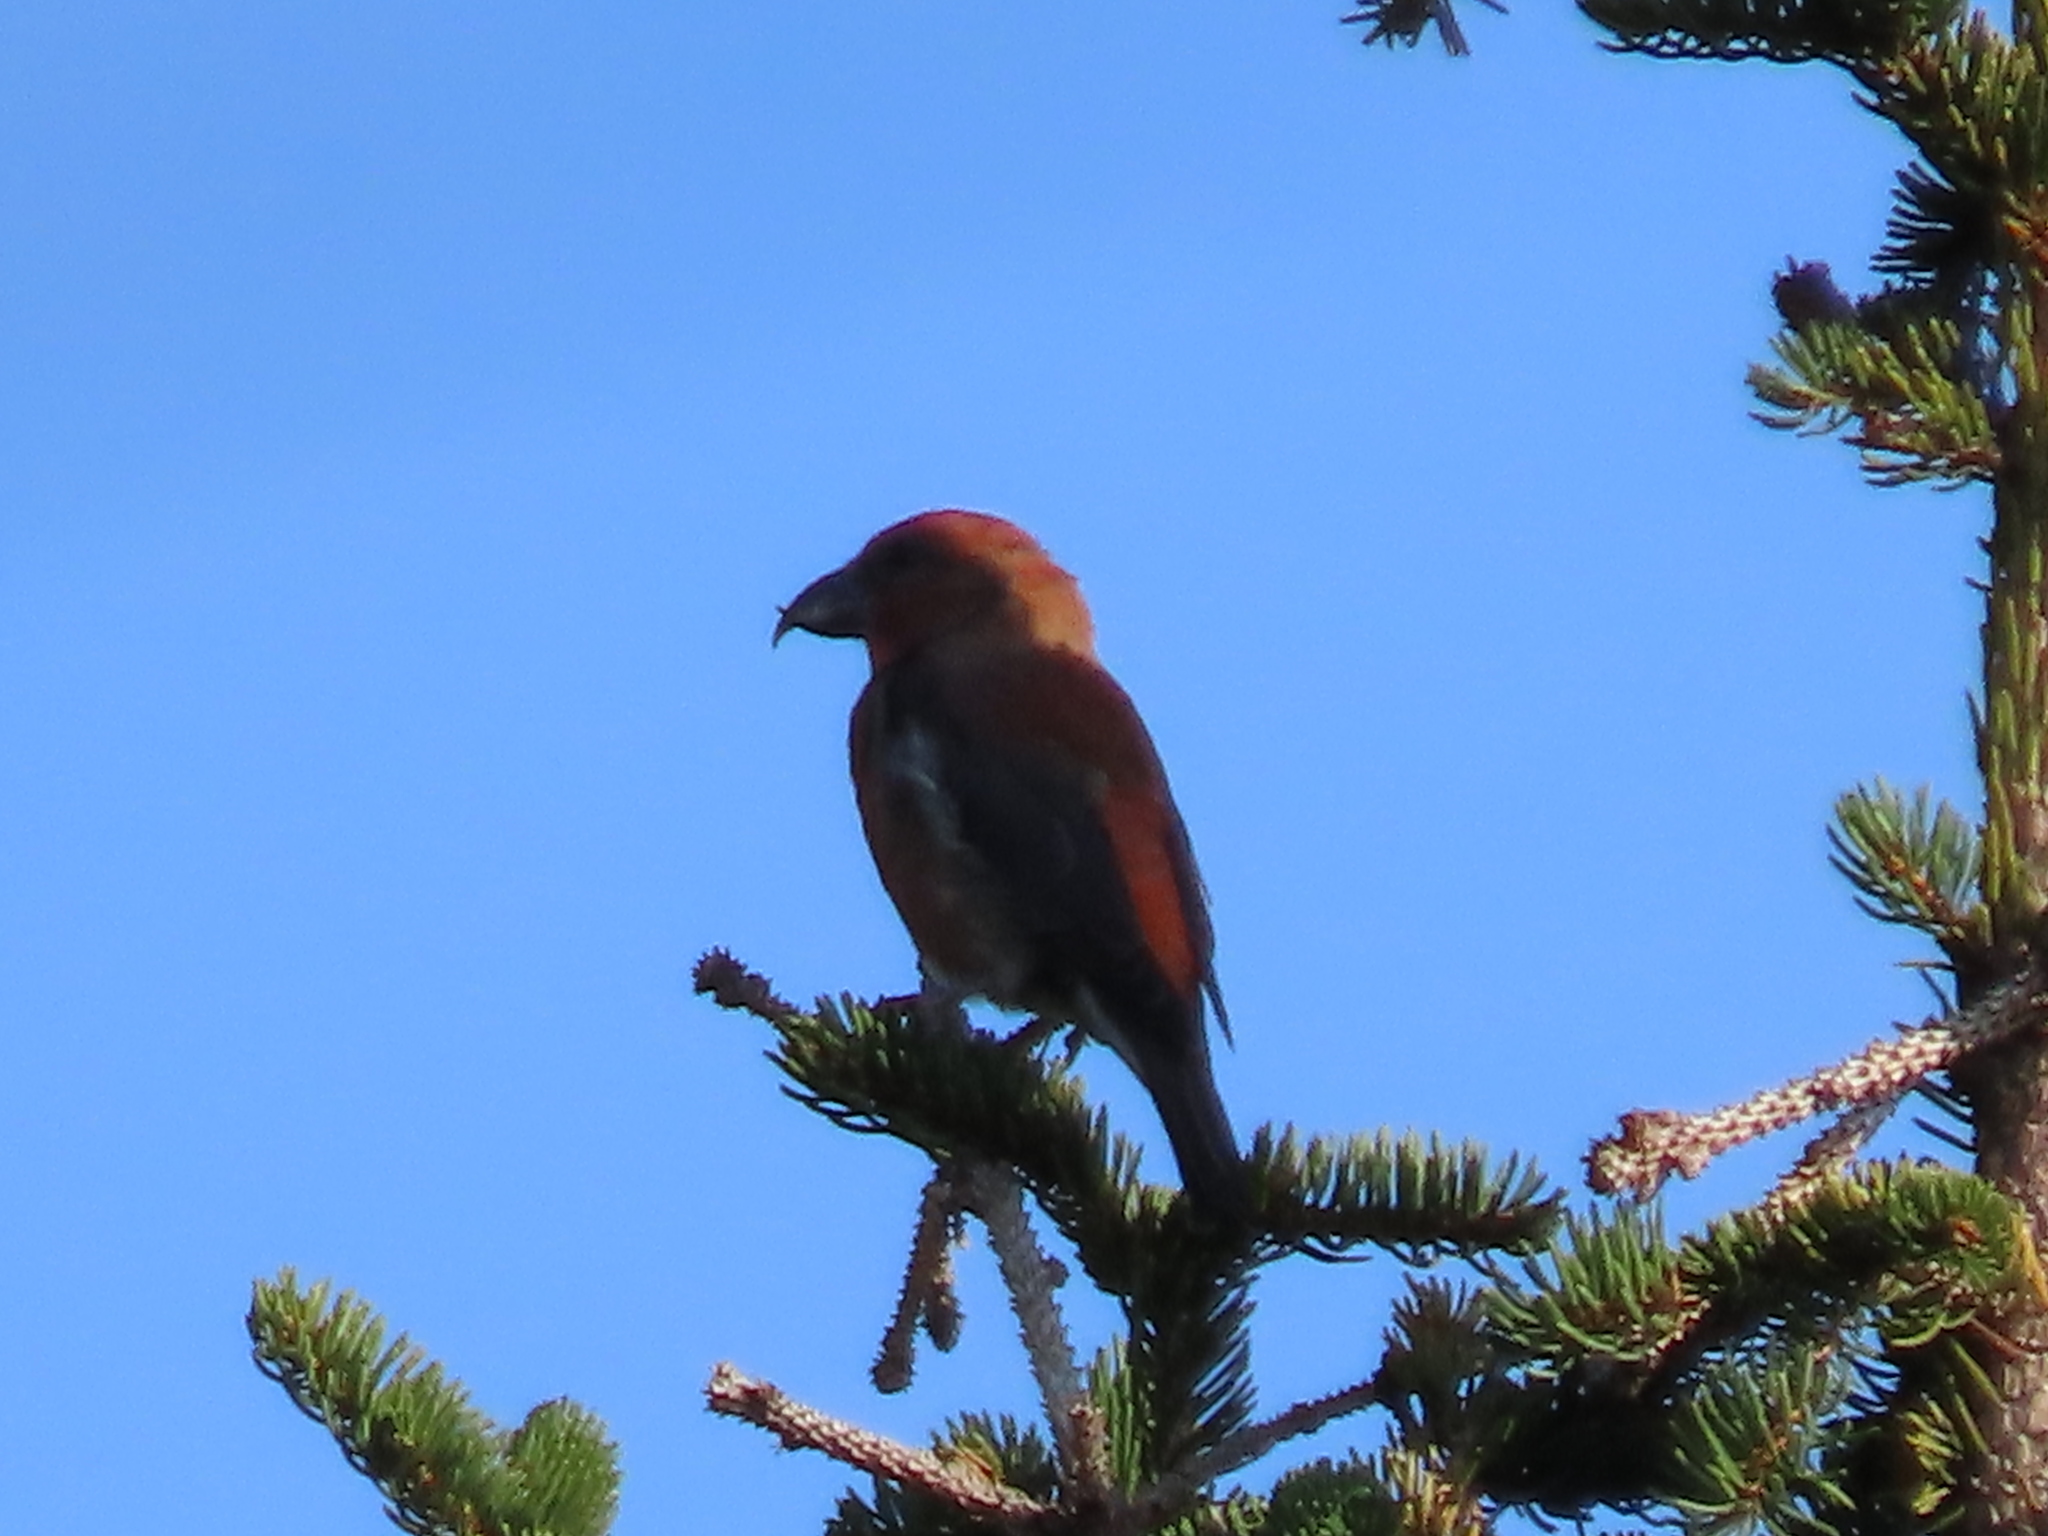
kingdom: Animalia
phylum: Chordata
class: Aves
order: Passeriformes
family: Fringillidae
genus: Loxia
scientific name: Loxia curvirostra
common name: Red crossbill
